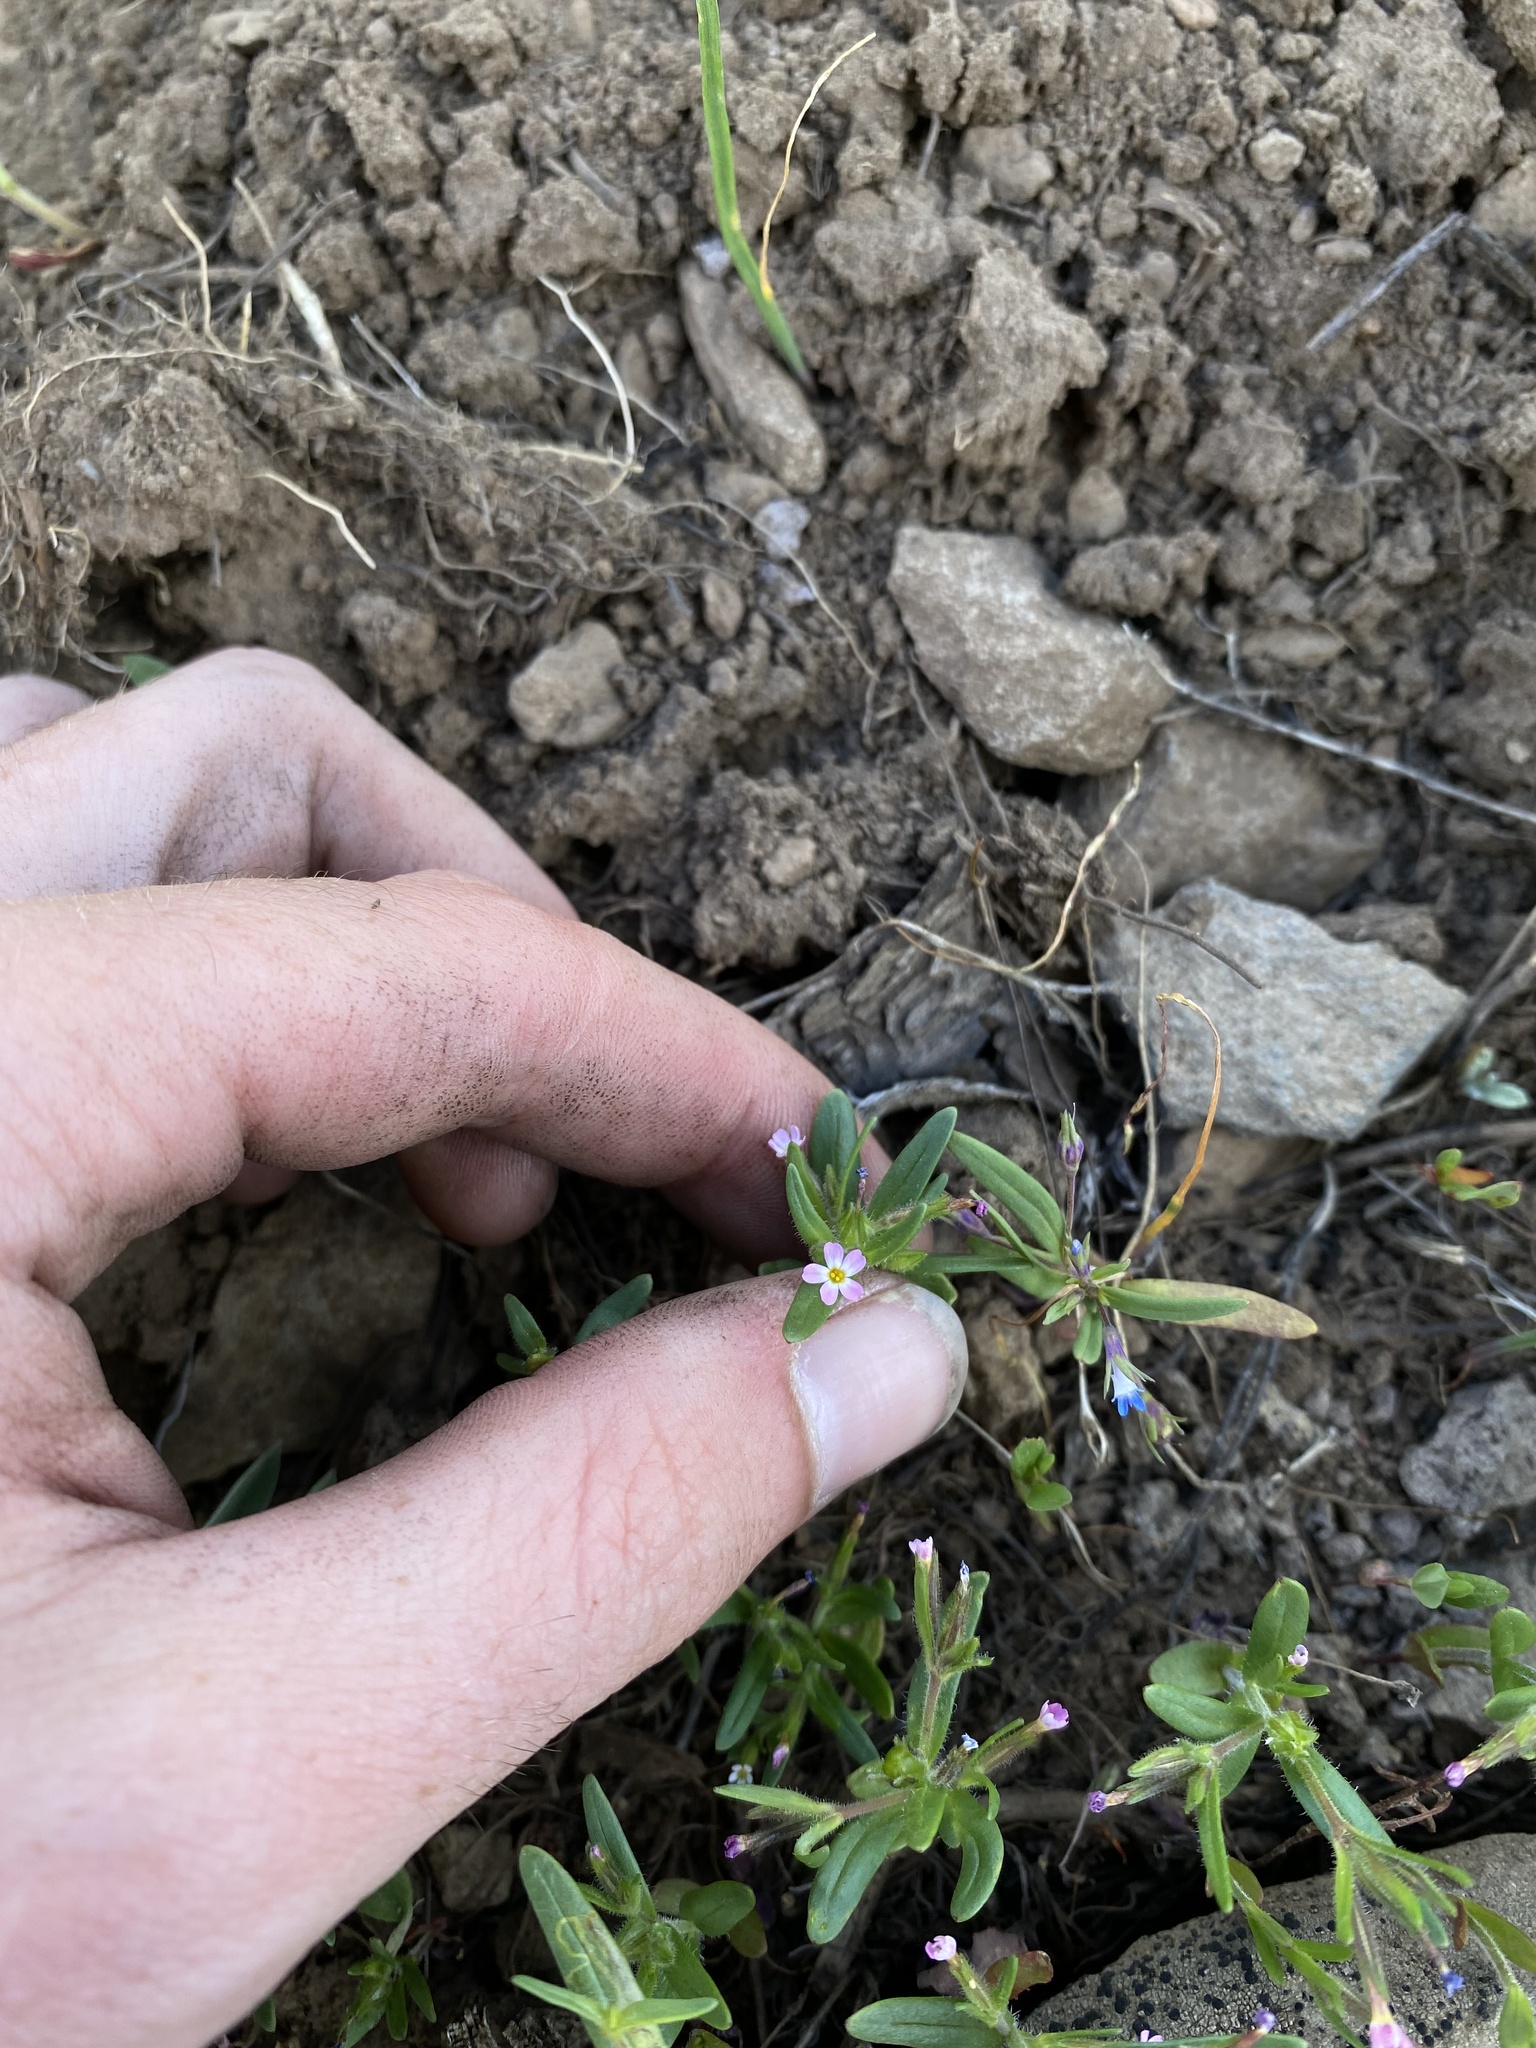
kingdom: Plantae
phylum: Tracheophyta
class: Magnoliopsida
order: Ericales
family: Polemoniaceae
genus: Phlox
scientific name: Phlox gracilis
